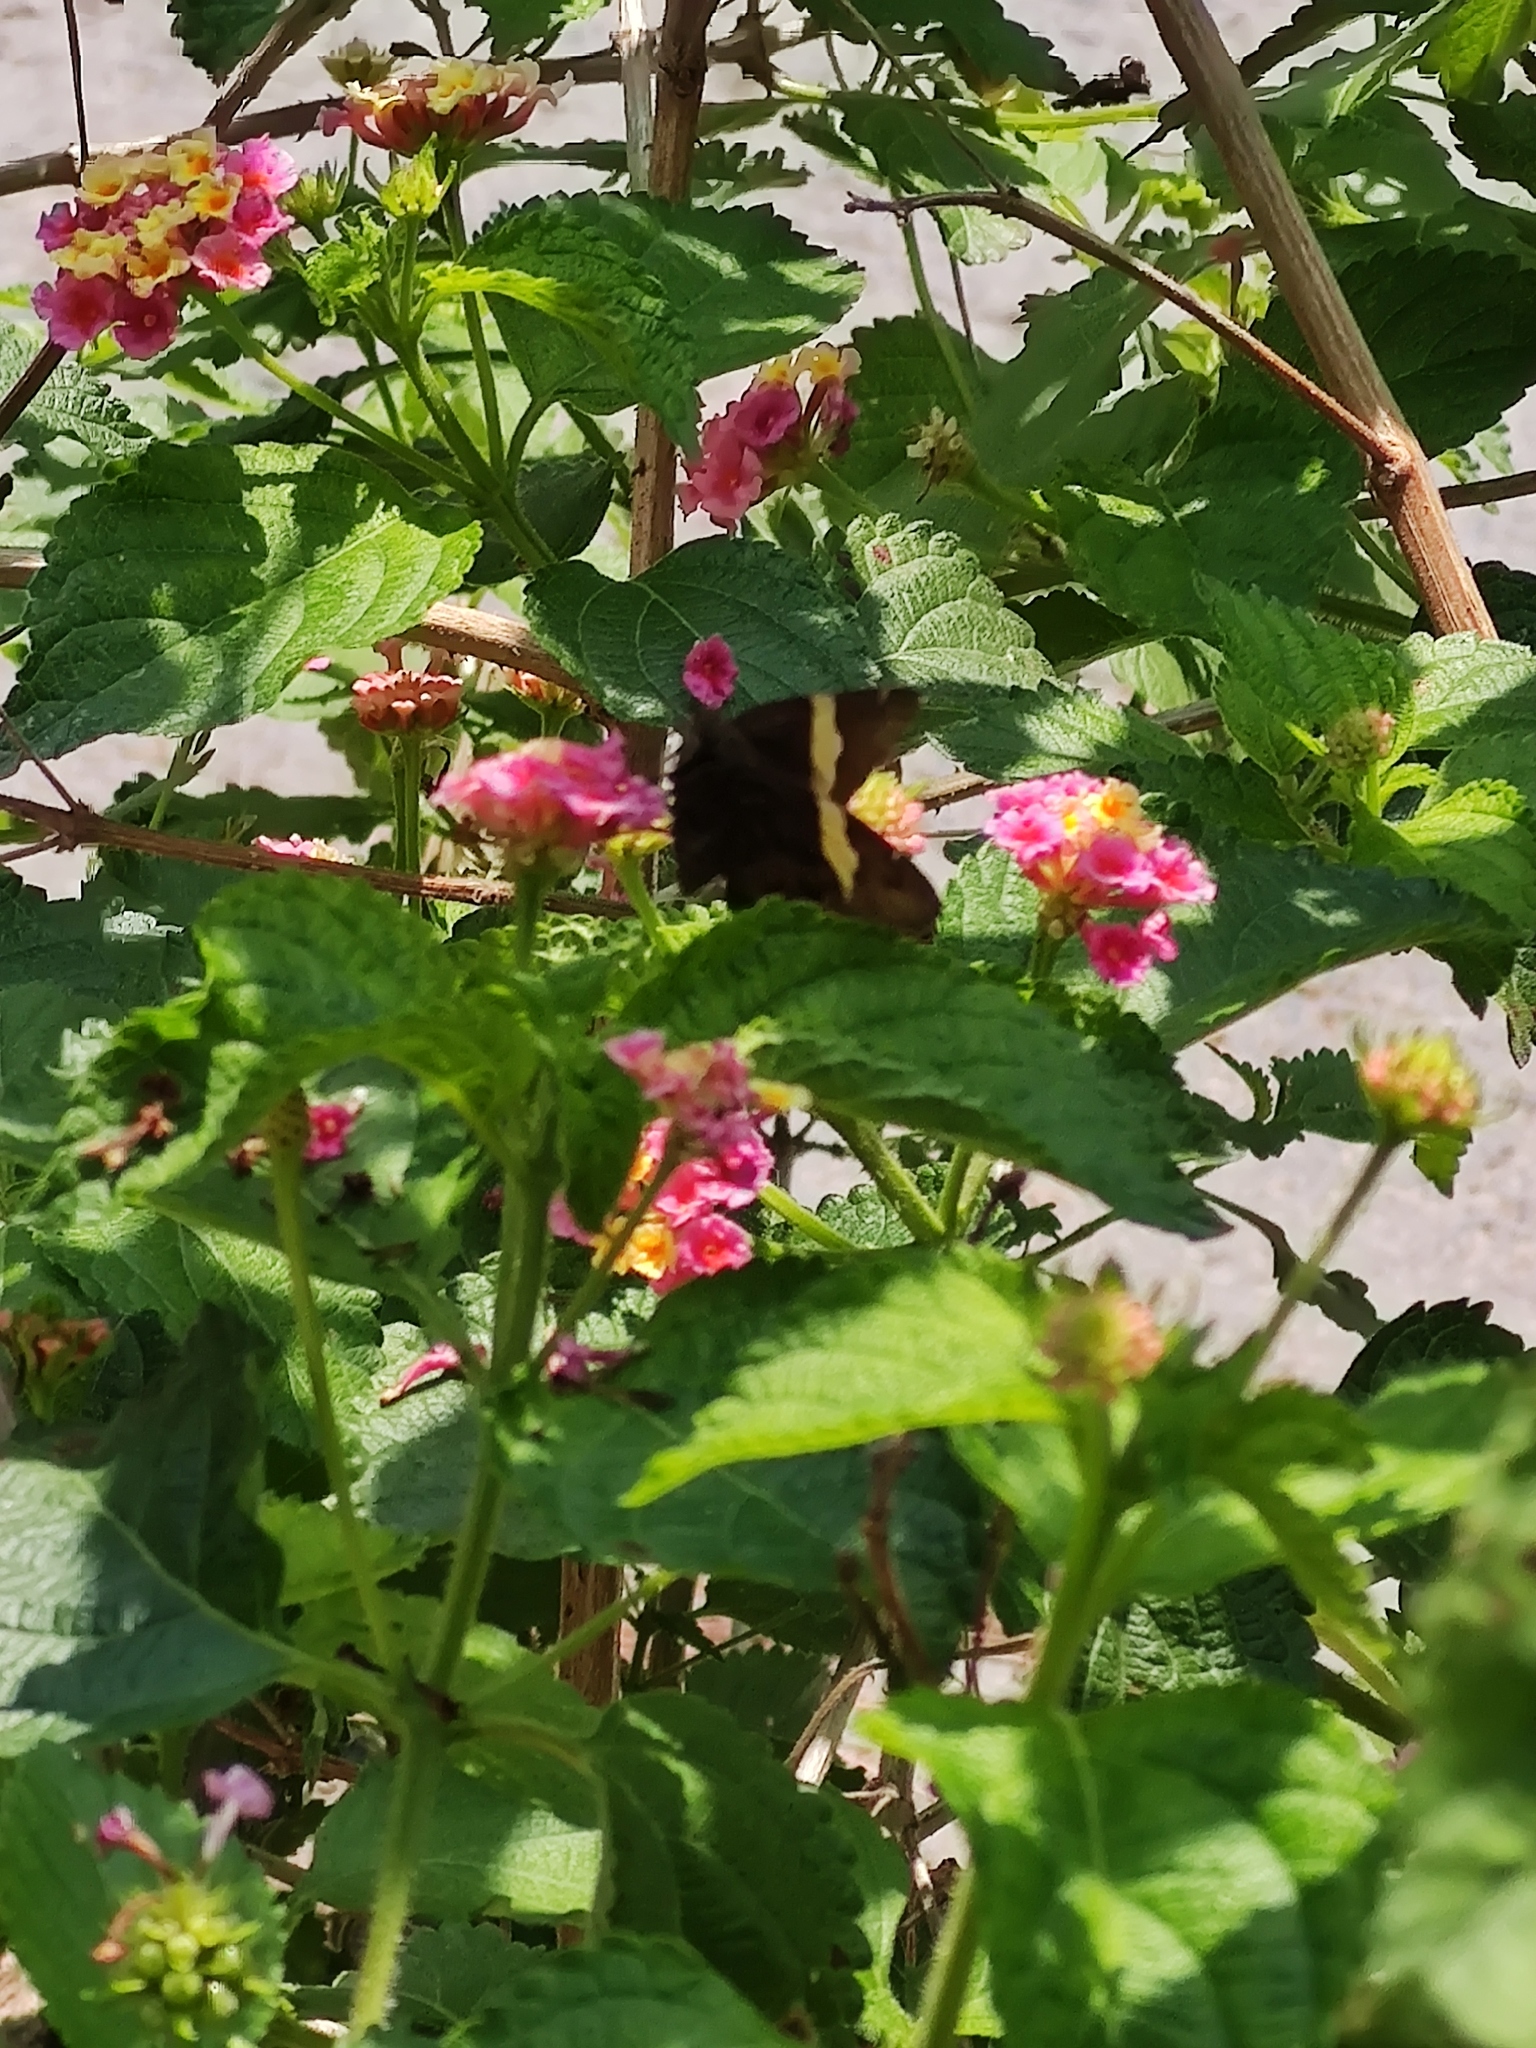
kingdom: Animalia
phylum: Arthropoda
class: Arachnida
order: Scorpiones
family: Bothriuridae
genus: Telegonus
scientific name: Telegonus cellus
